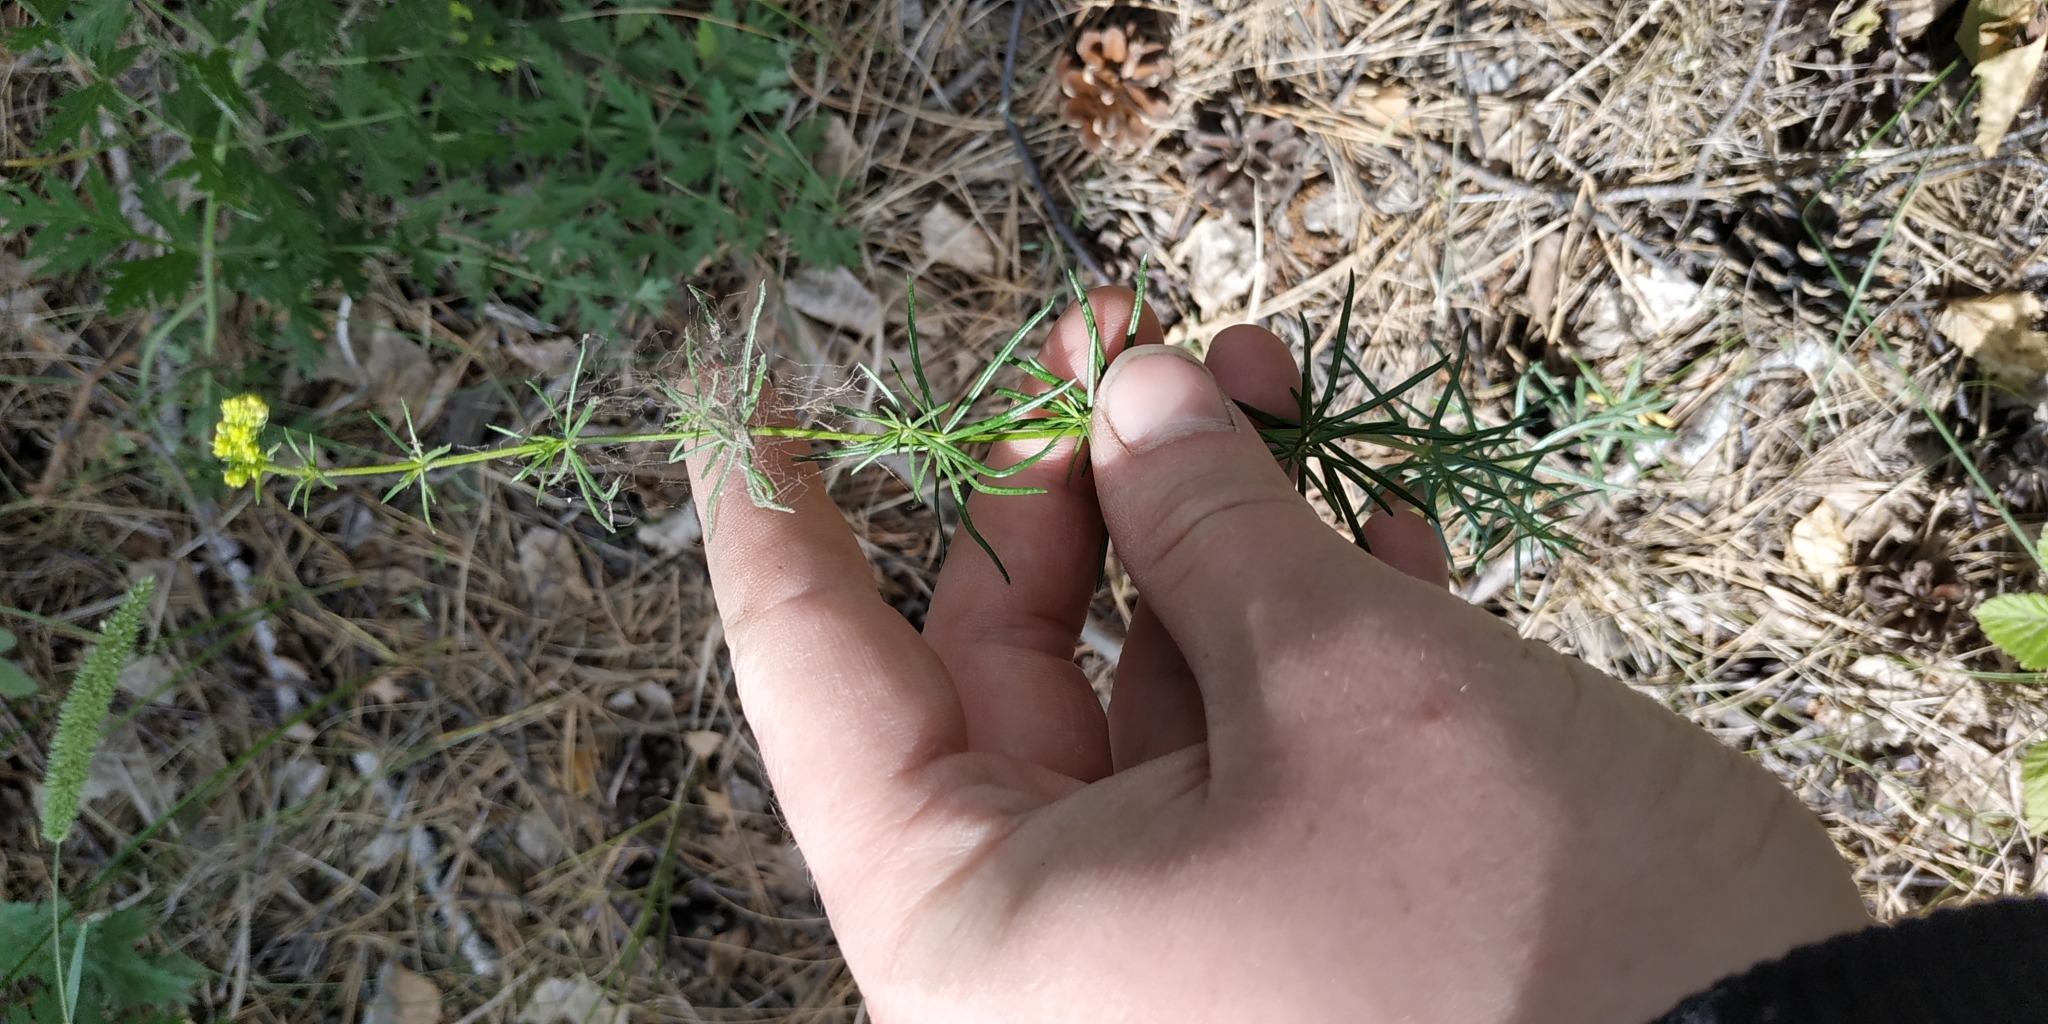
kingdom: Plantae
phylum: Tracheophyta
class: Magnoliopsida
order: Gentianales
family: Rubiaceae
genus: Galium
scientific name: Galium verum
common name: Lady's bedstraw
